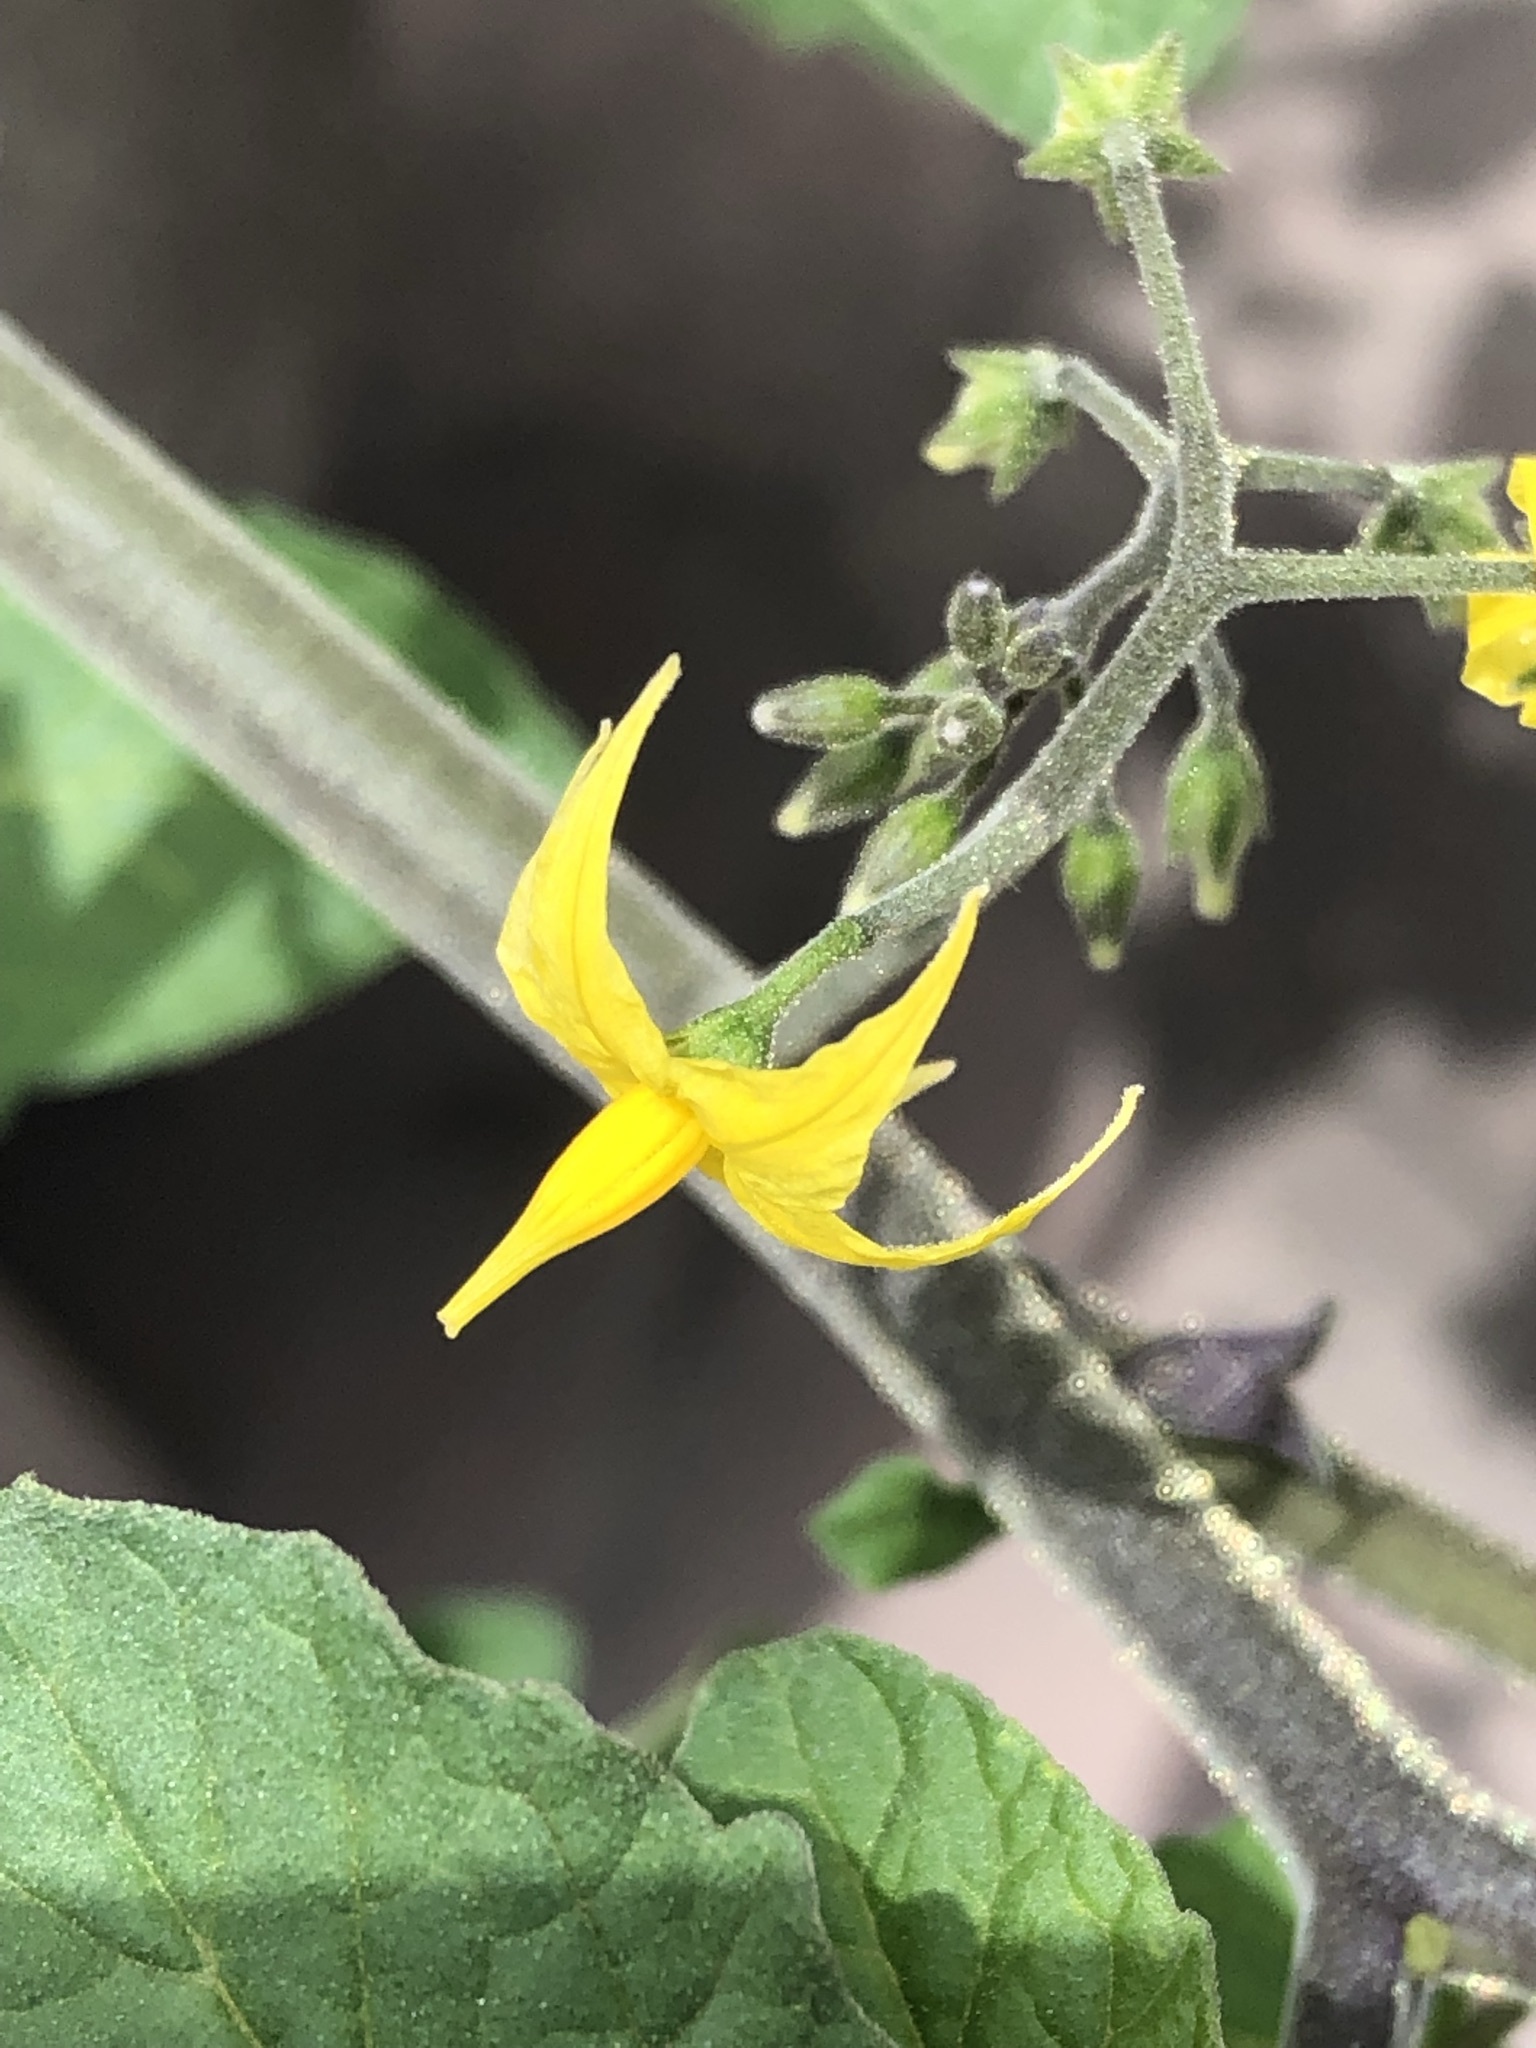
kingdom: Plantae
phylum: Tracheophyta
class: Magnoliopsida
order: Solanales
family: Solanaceae
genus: Solanum
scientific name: Solanum lycopersicum
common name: Garden tomato
